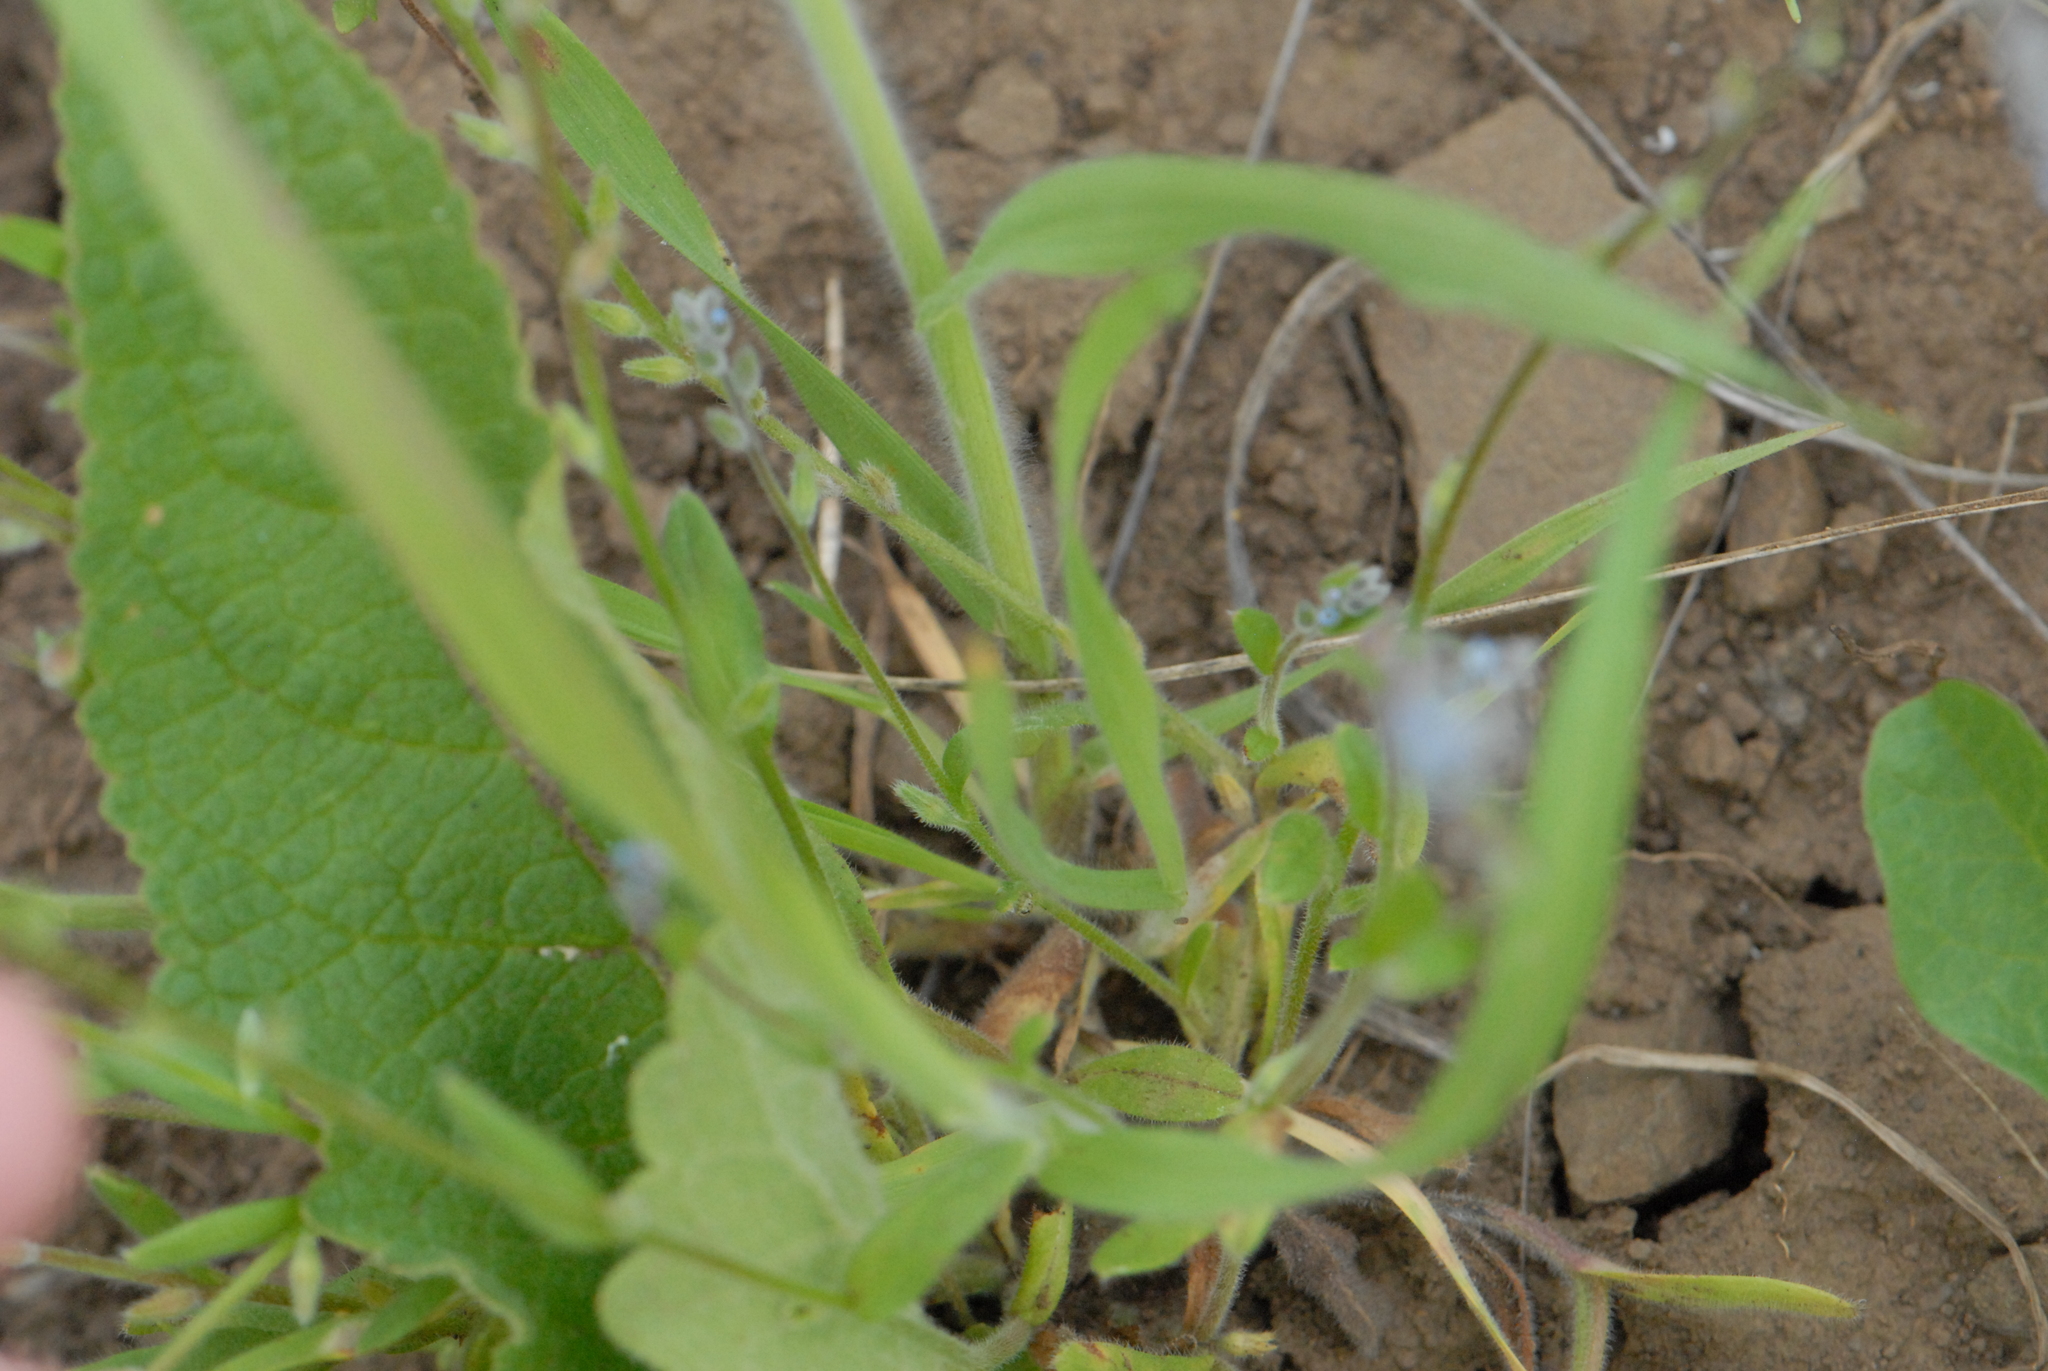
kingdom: Plantae
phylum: Tracheophyta
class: Magnoliopsida
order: Boraginales
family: Boraginaceae
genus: Myosotis
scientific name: Myosotis stricta
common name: Strict forget-me-not
